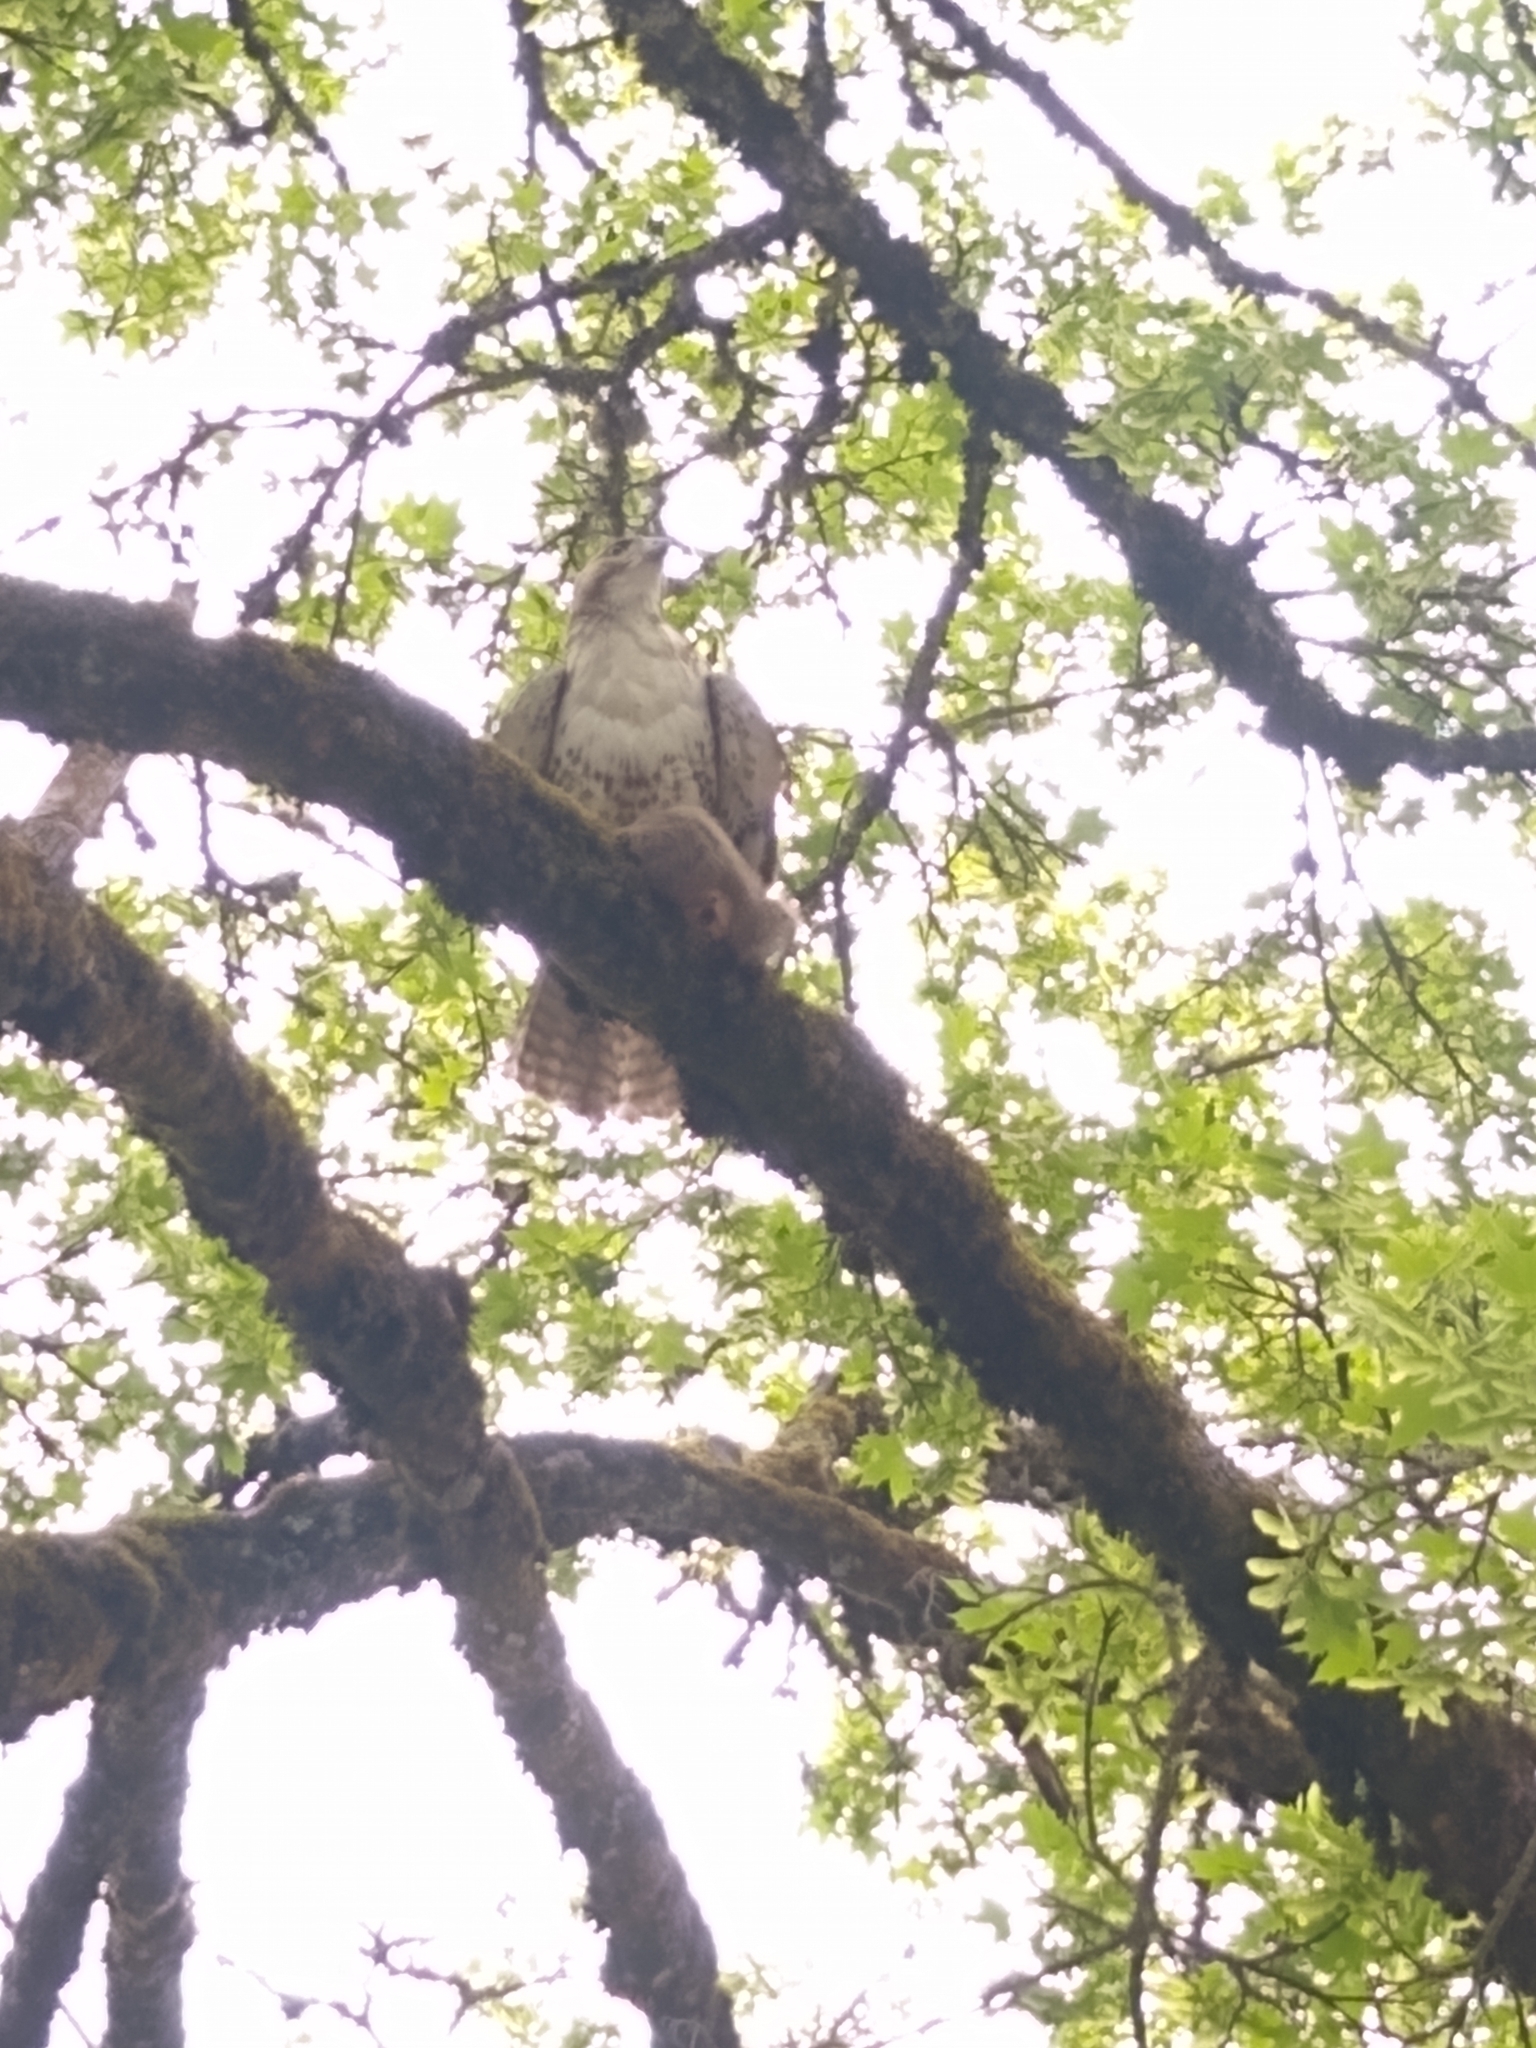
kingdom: Animalia
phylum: Chordata
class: Aves
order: Accipitriformes
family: Accipitridae
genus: Buteo
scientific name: Buteo jamaicensis
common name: Red-tailed hawk
